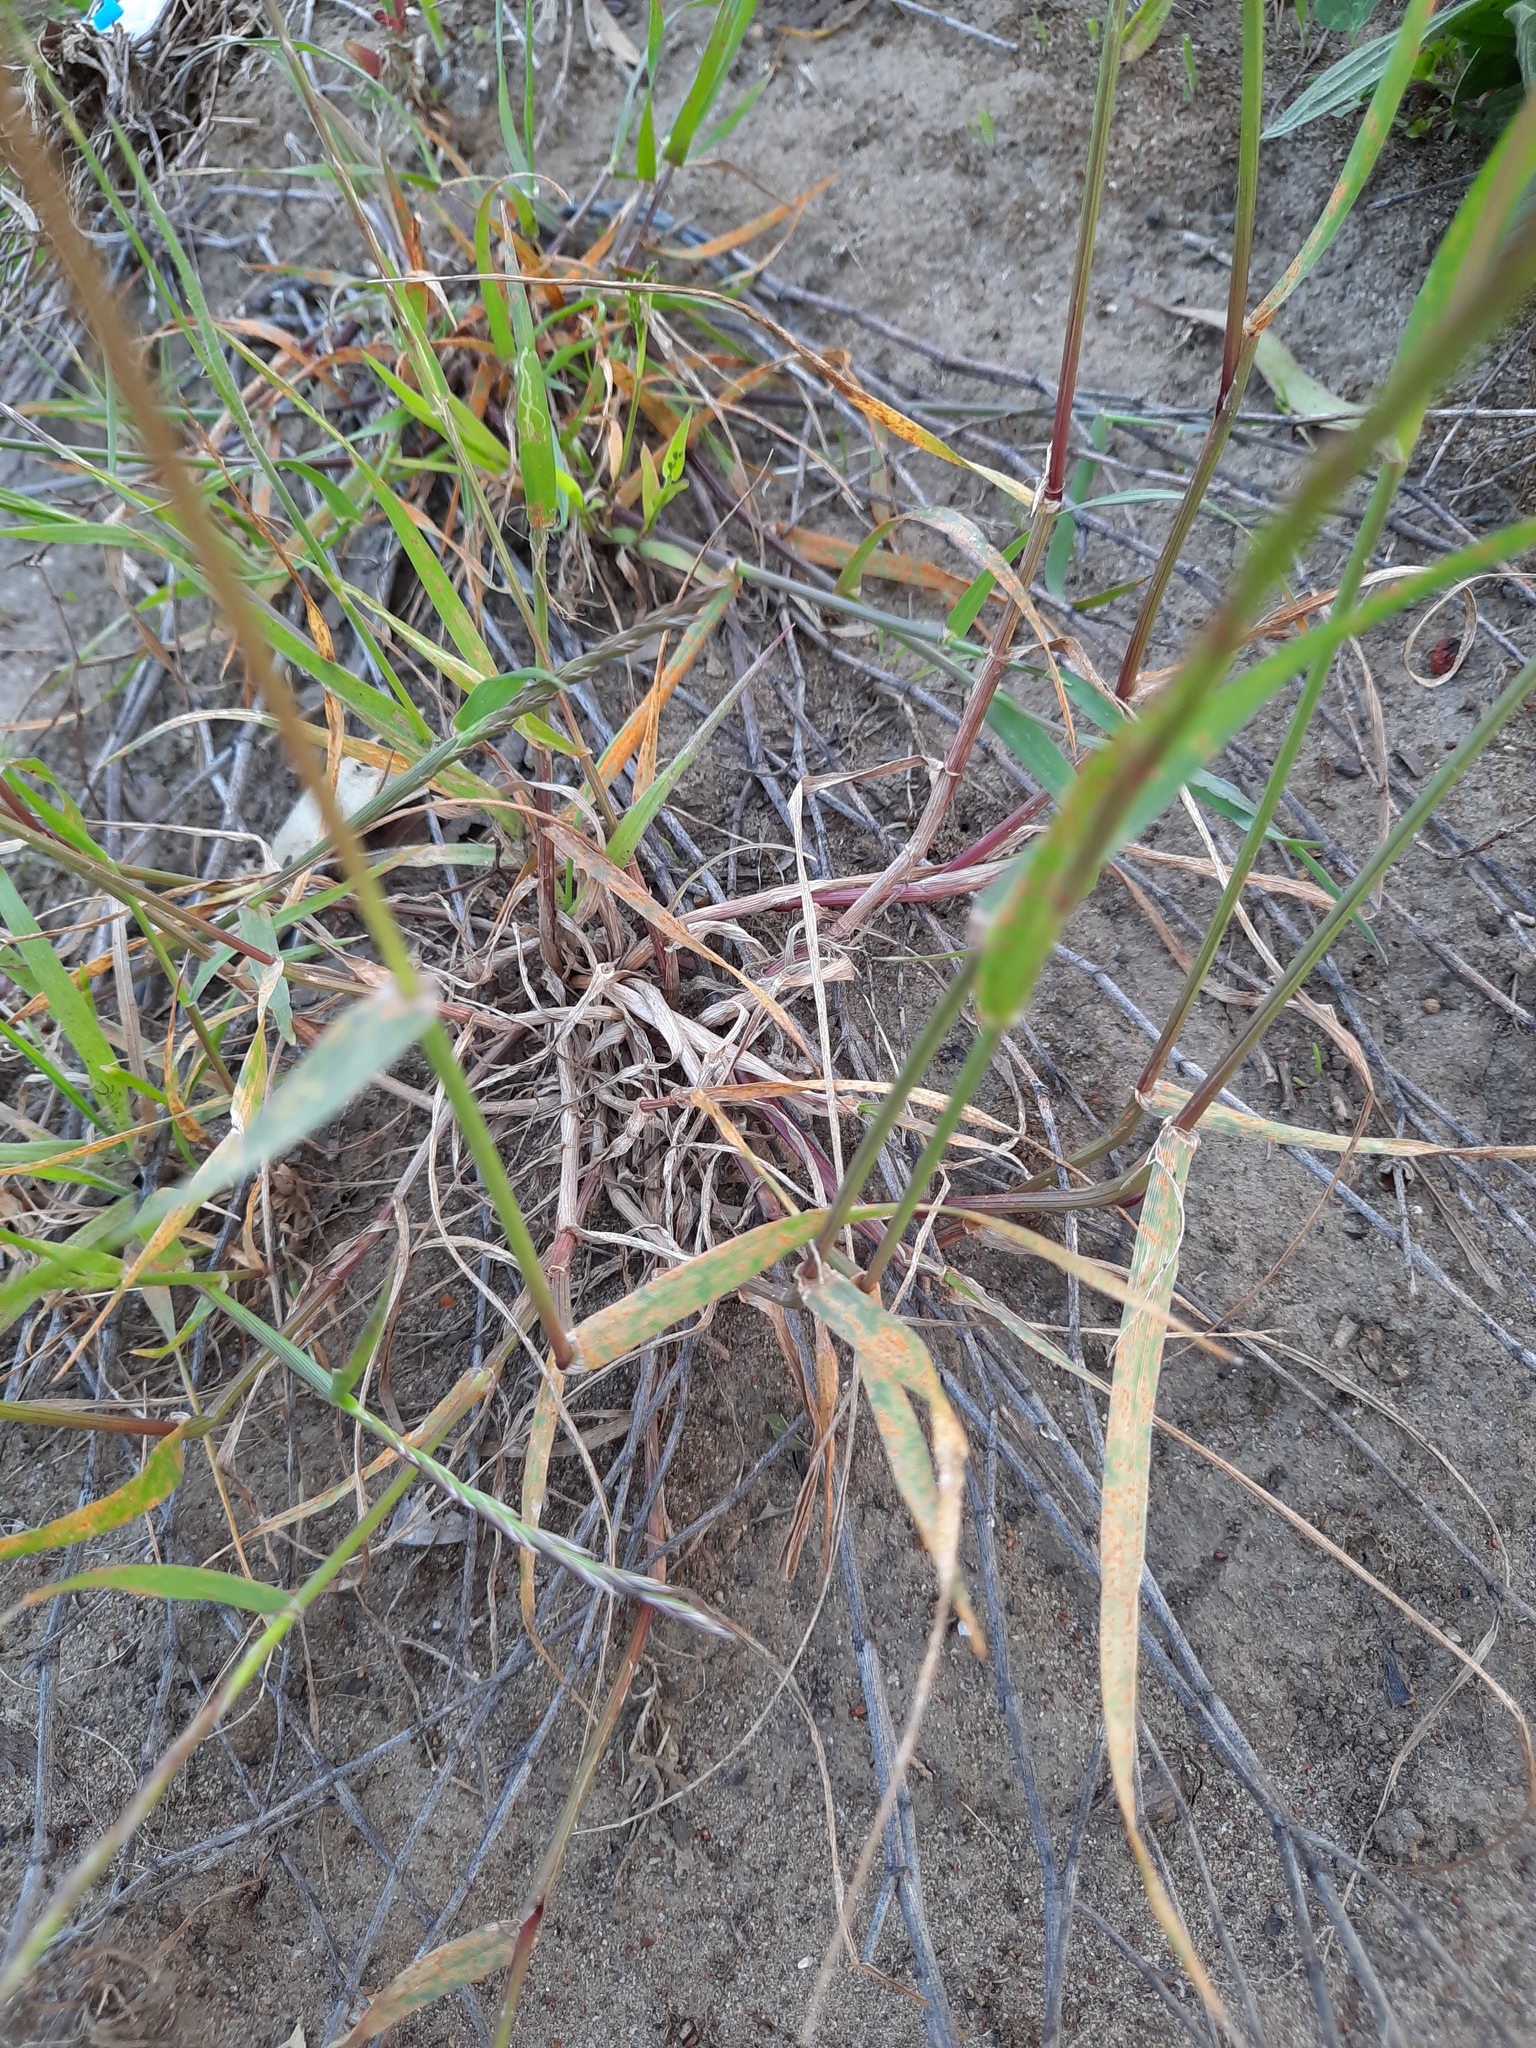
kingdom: Plantae
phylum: Tracheophyta
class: Liliopsida
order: Poales
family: Poaceae
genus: Lolium
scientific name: Lolium rigidum
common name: Wimmera ryegrass
